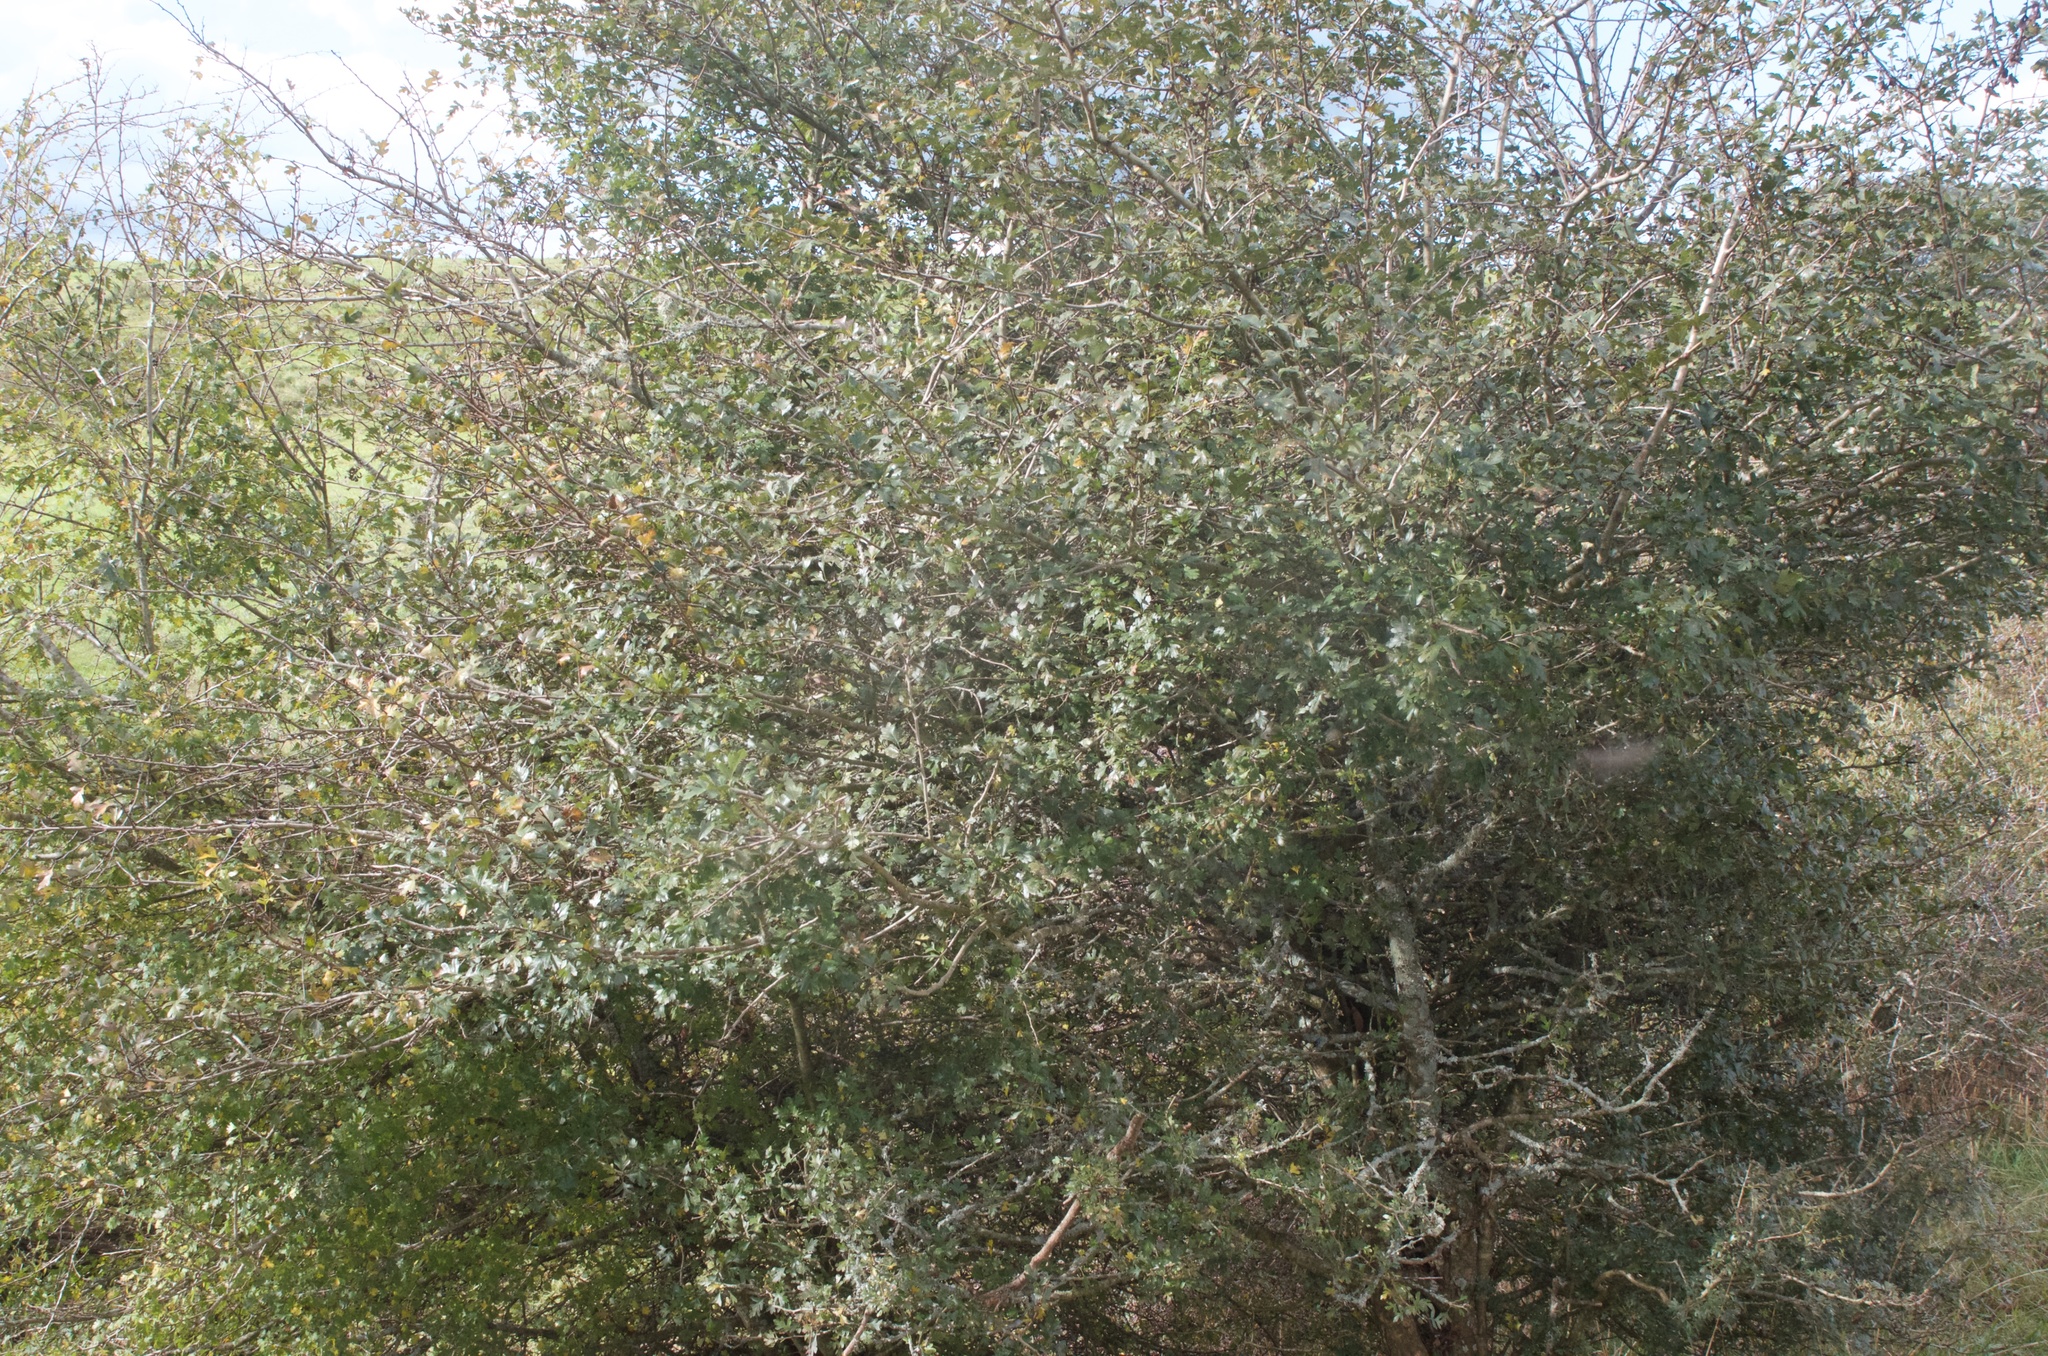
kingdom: Plantae
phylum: Tracheophyta
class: Magnoliopsida
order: Rosales
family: Rosaceae
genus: Crataegus
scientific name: Crataegus monogyna
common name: Hawthorn
